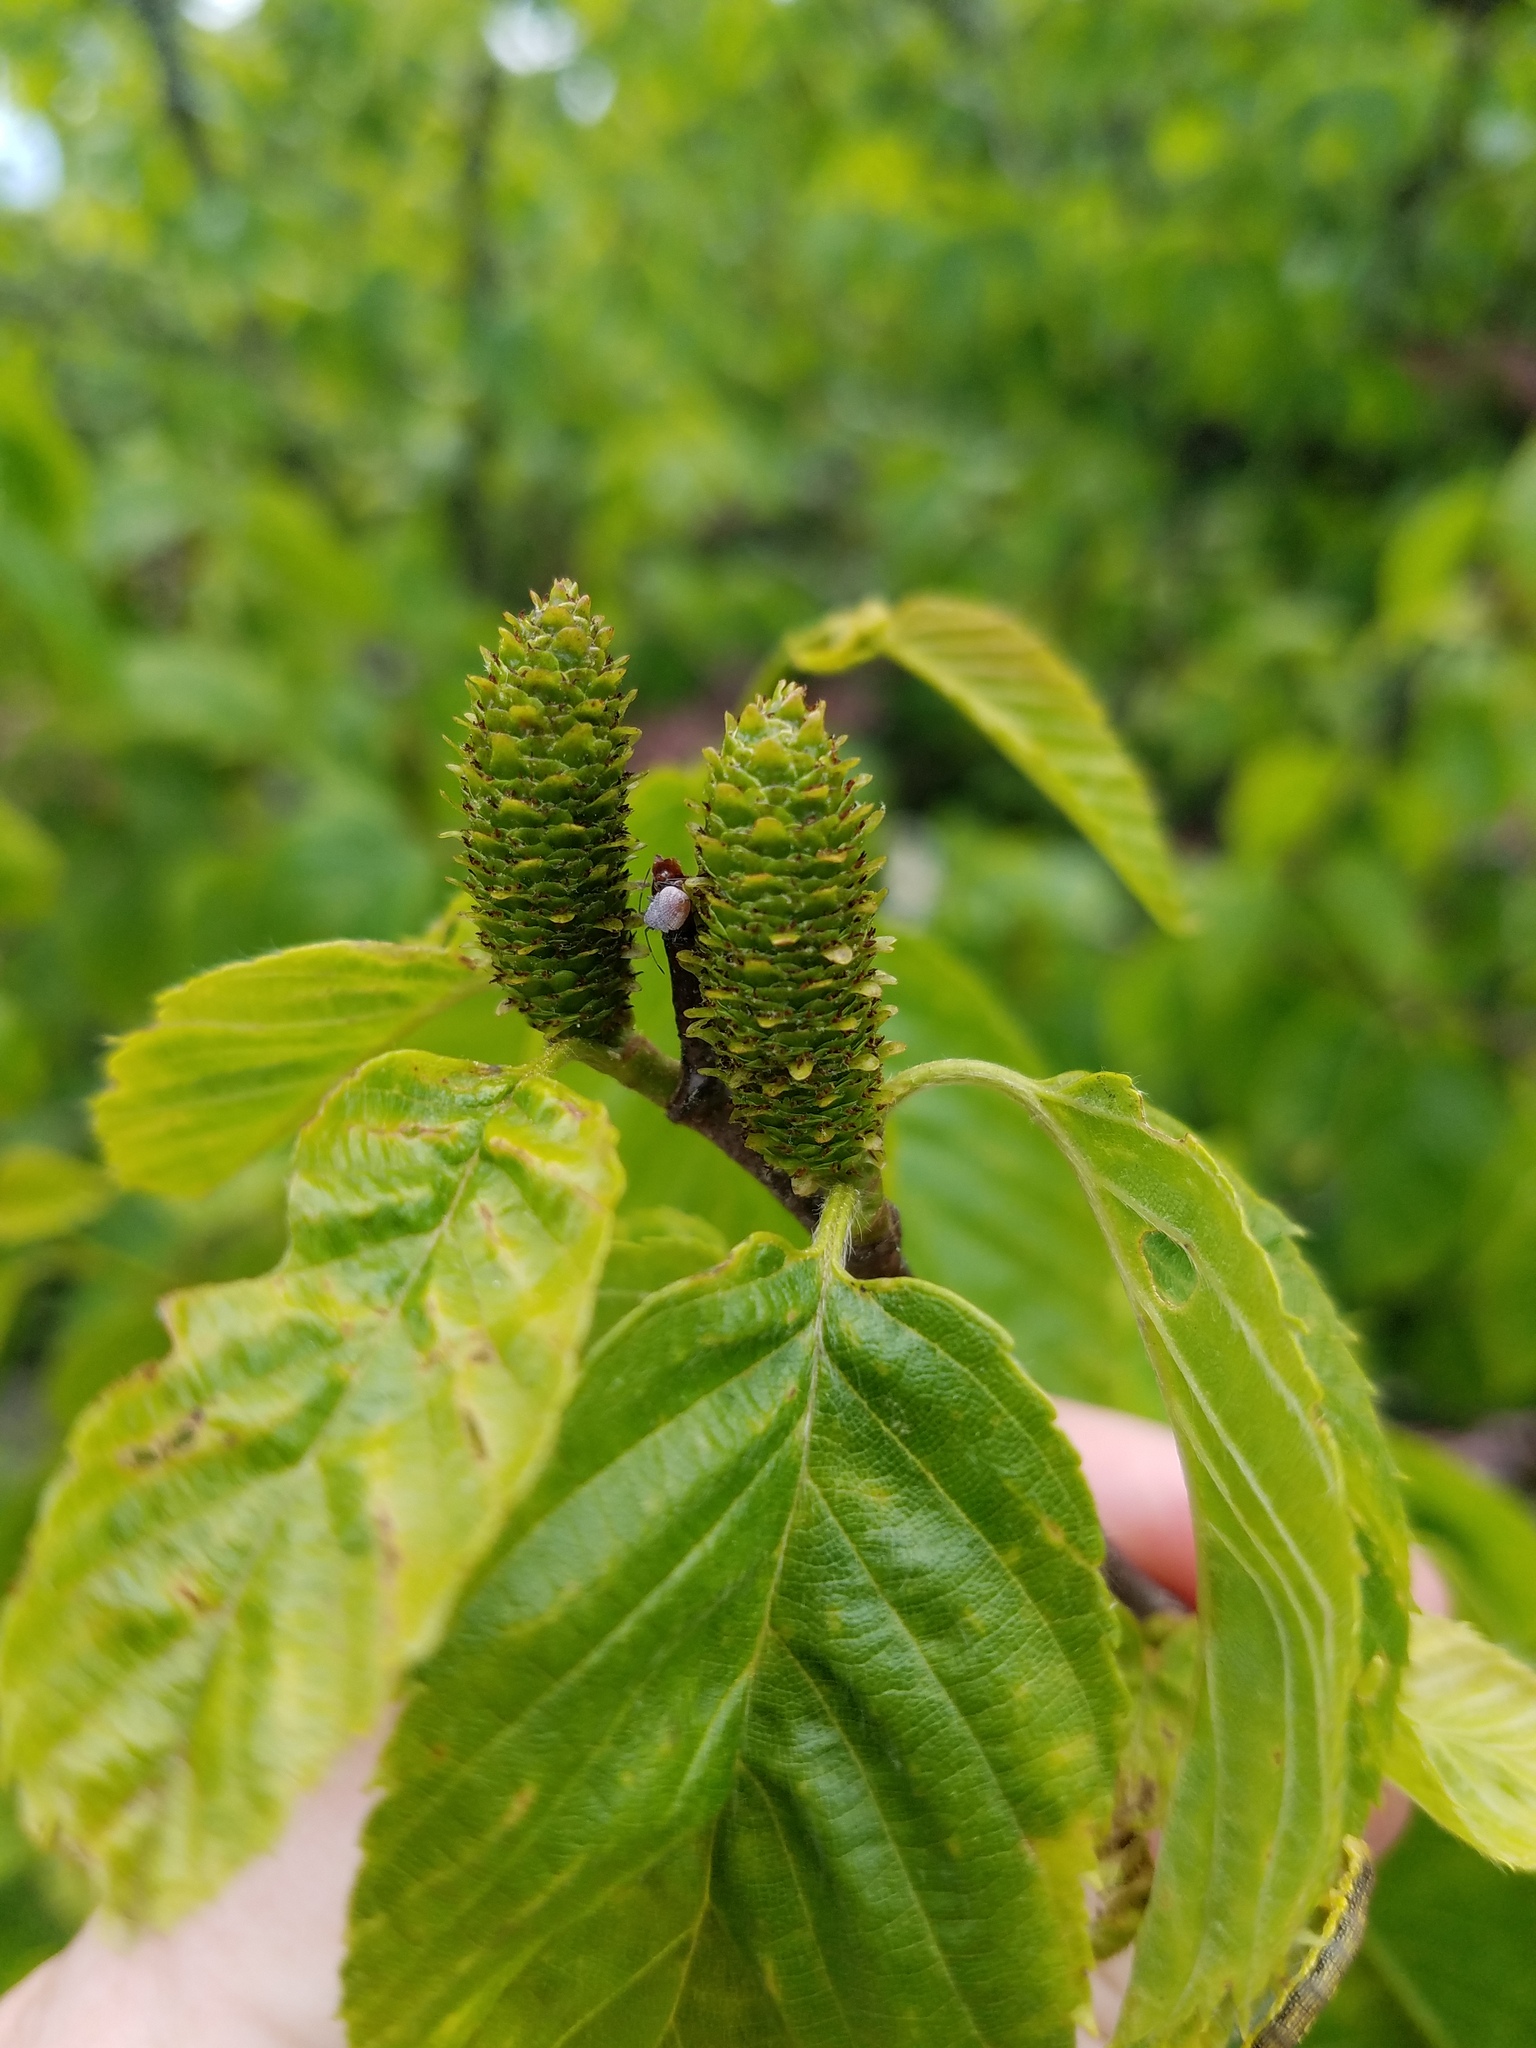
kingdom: Plantae
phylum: Tracheophyta
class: Magnoliopsida
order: Fagales
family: Betulaceae
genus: Betula
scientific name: Betula lenta
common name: Black birch
